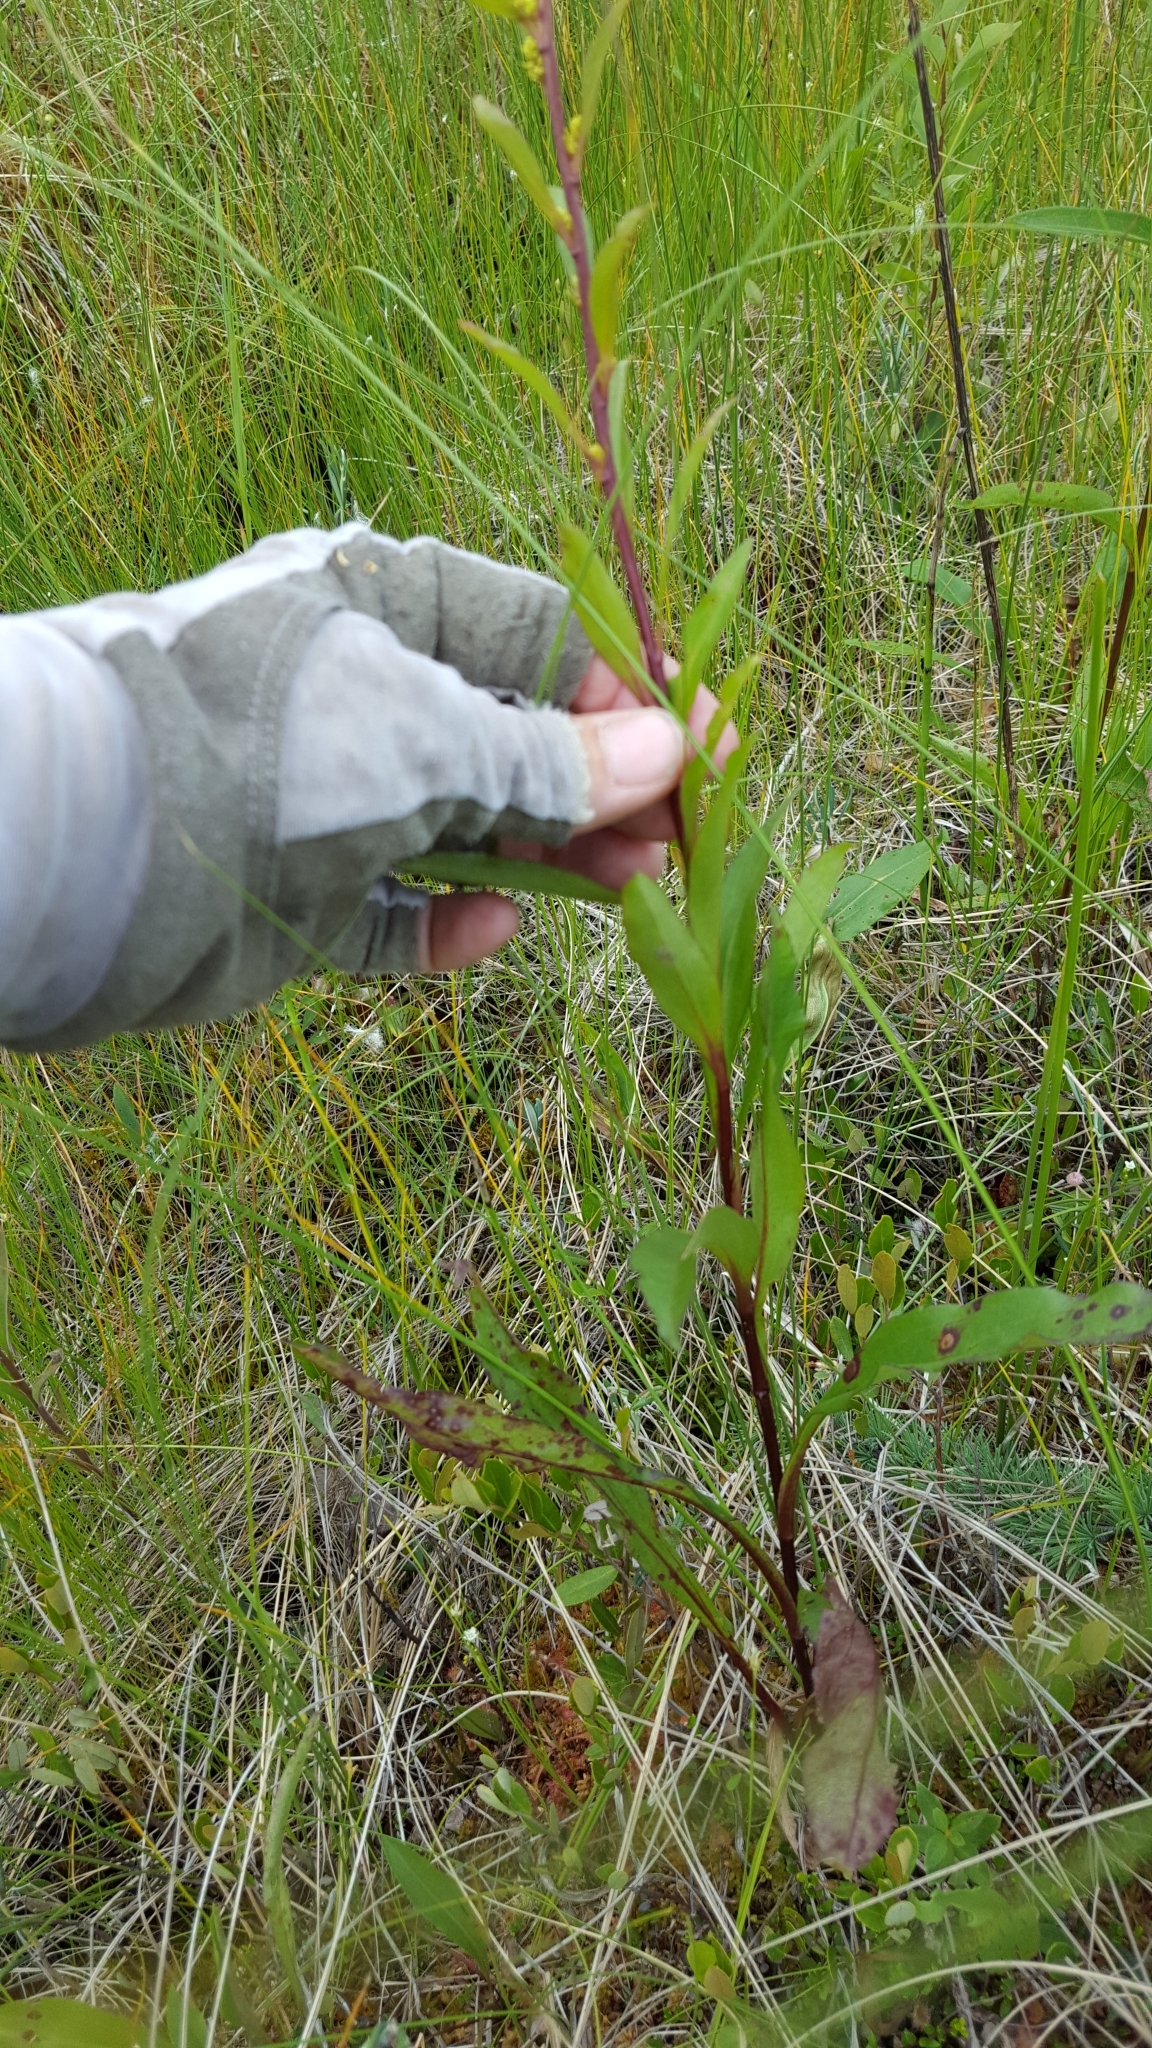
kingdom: Plantae
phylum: Tracheophyta
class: Magnoliopsida
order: Asterales
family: Asteraceae
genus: Solidago
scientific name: Solidago uliginosa
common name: Bog goldenrod
